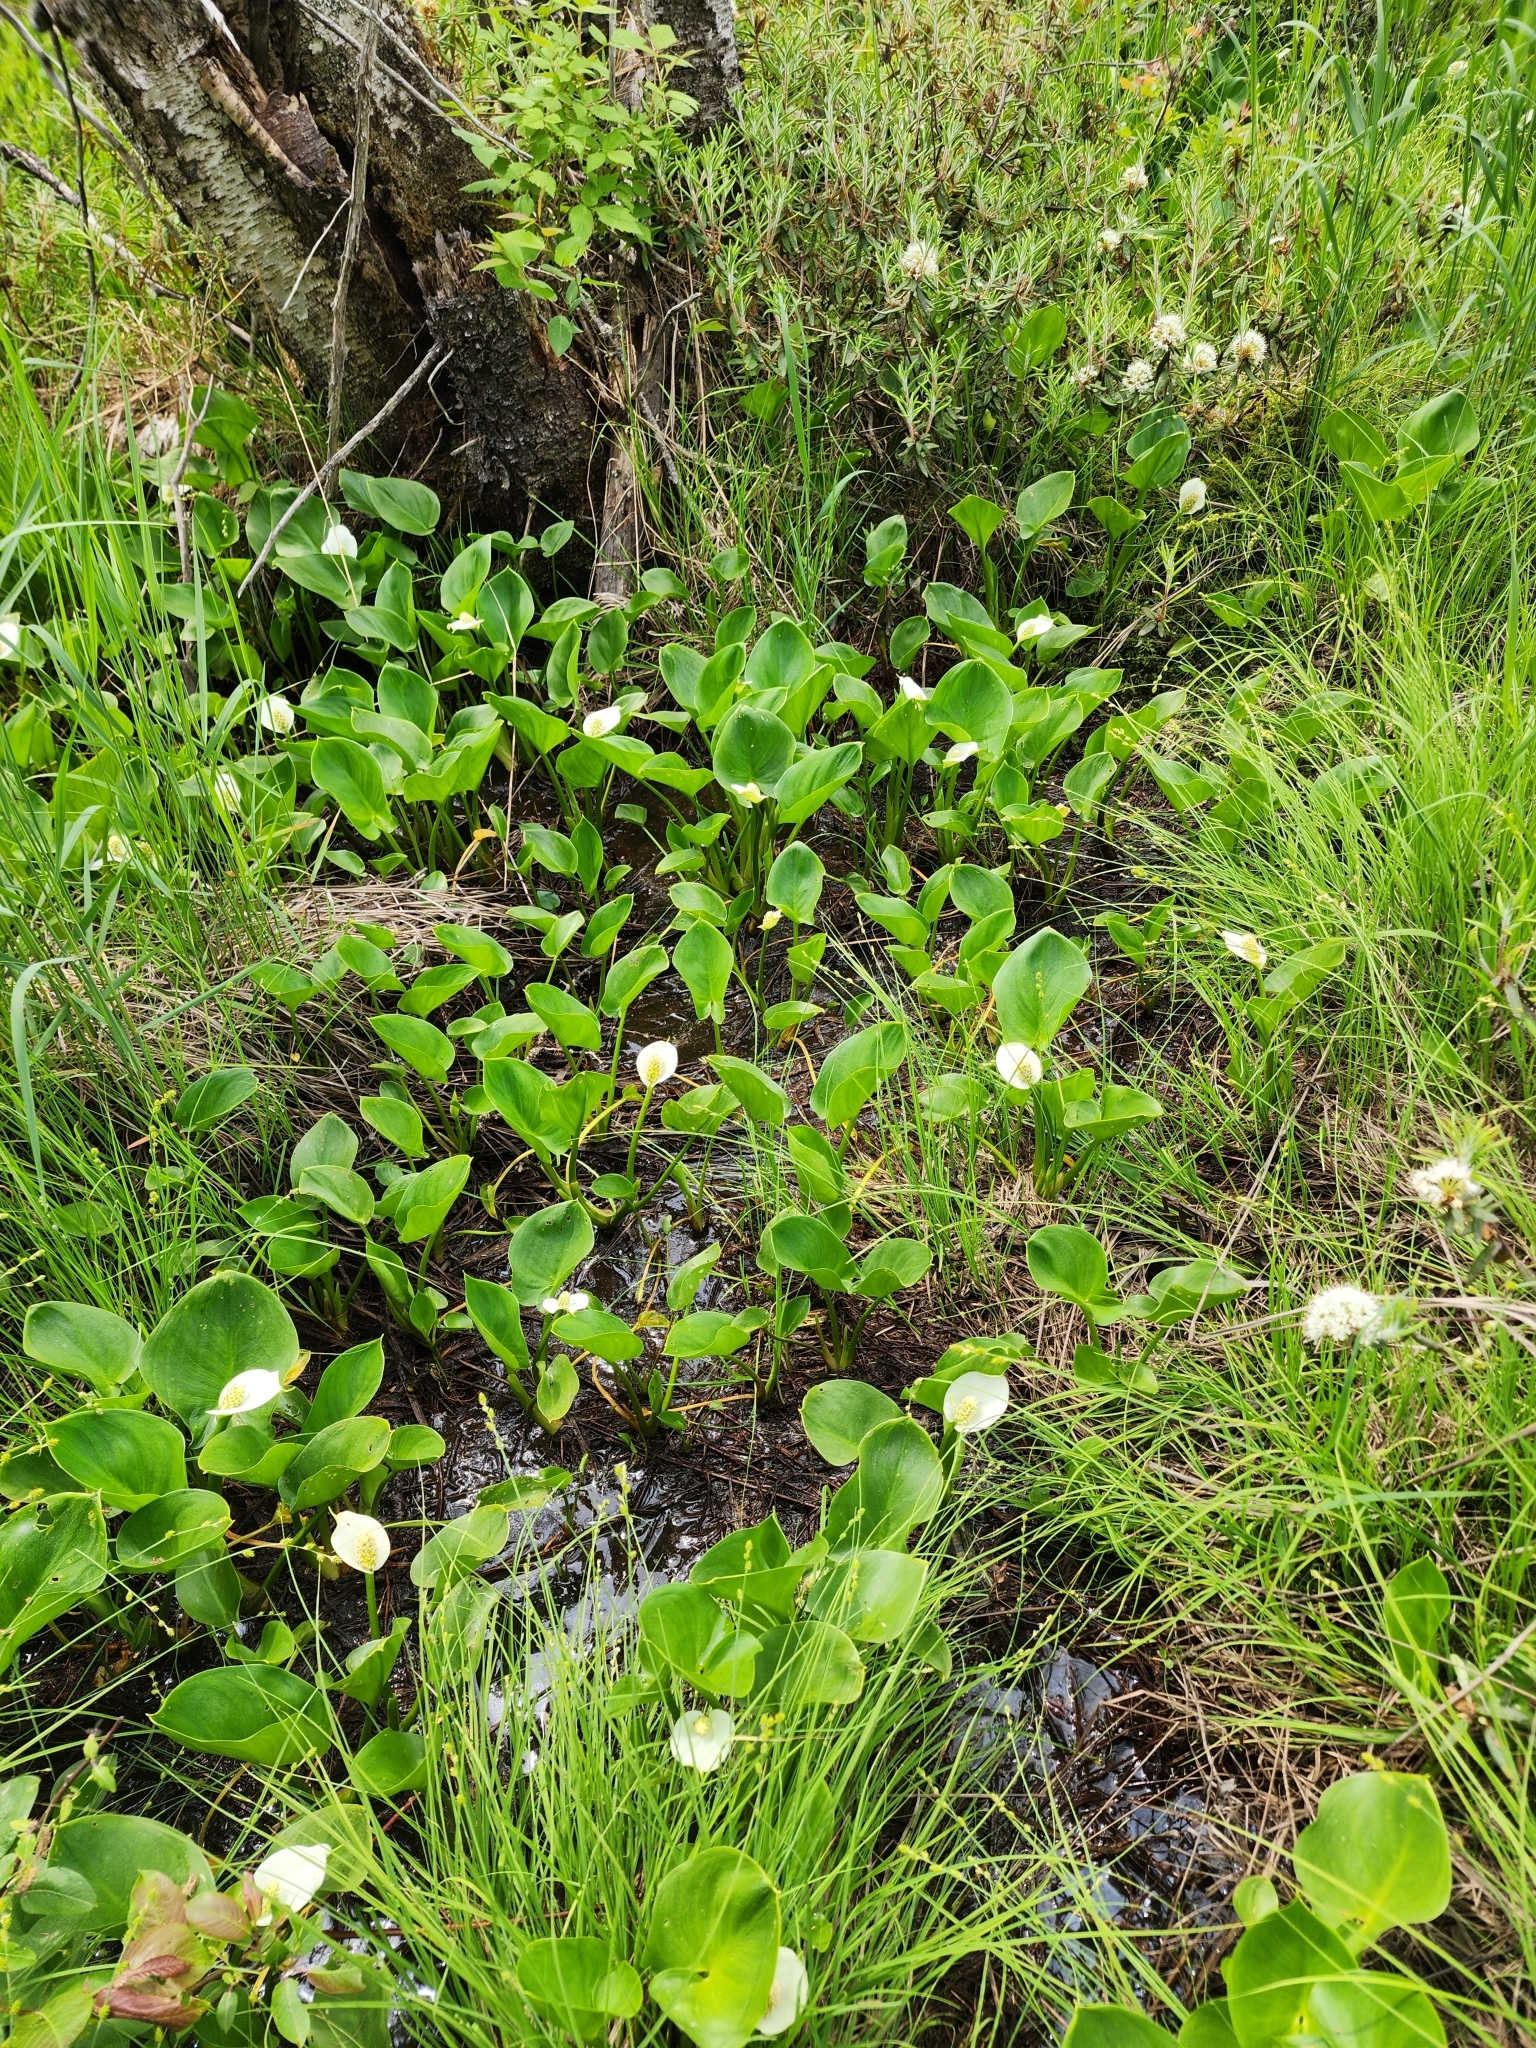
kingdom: Plantae
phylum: Tracheophyta
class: Liliopsida
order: Alismatales
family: Araceae
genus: Calla
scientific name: Calla palustris
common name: Bog arum
